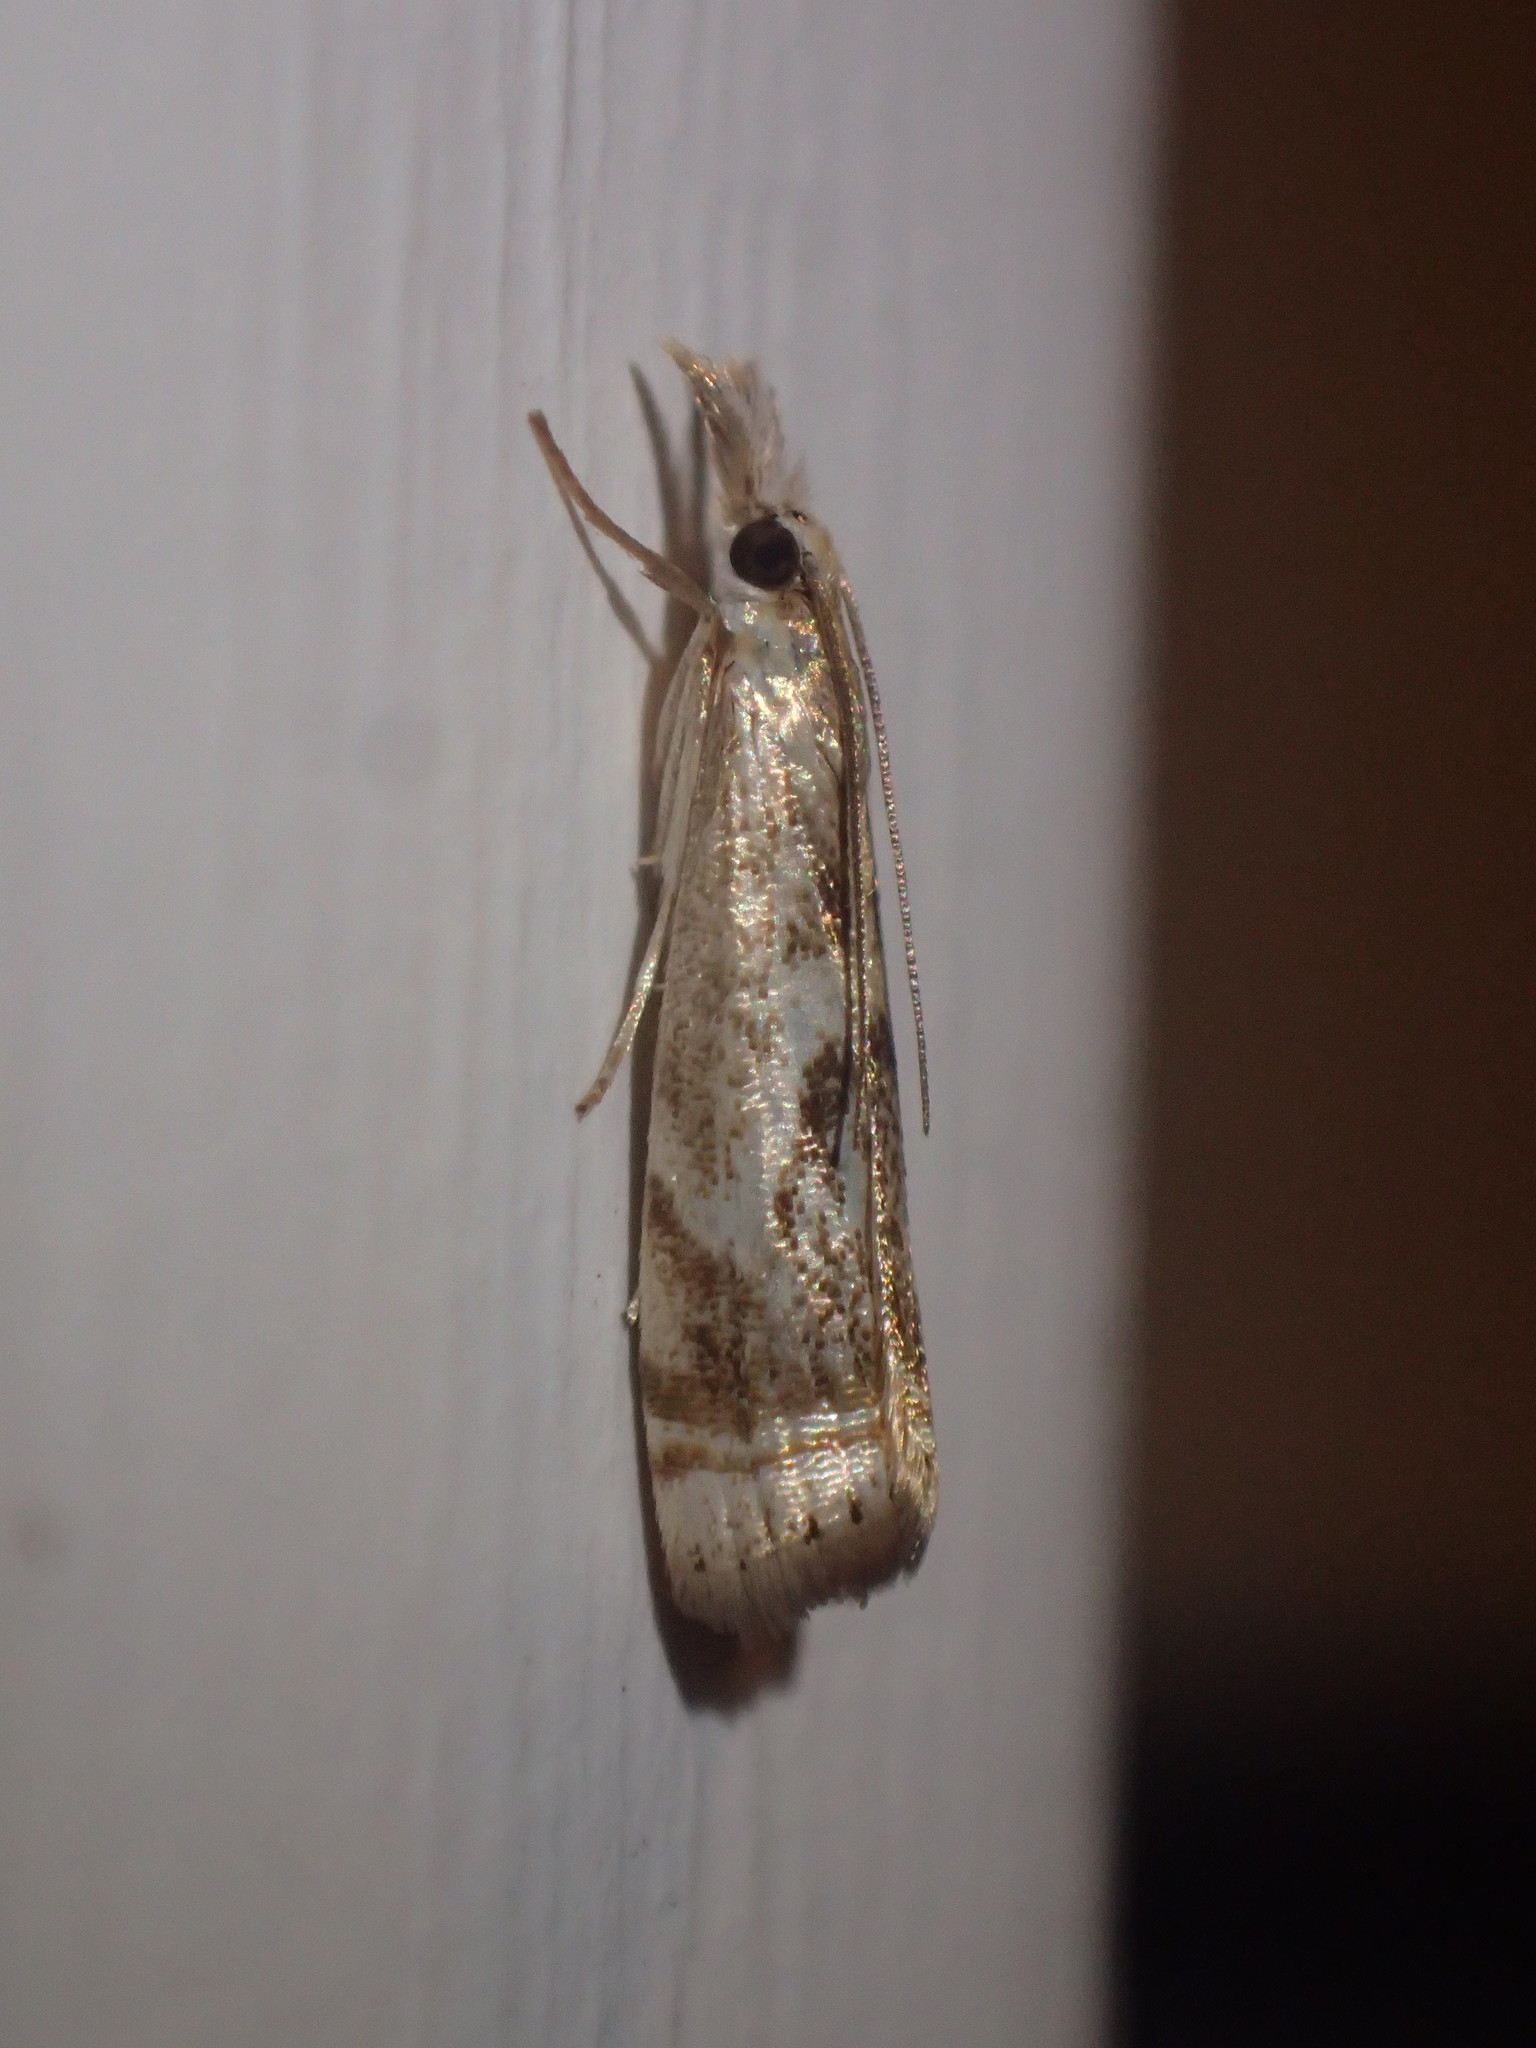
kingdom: Animalia
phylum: Arthropoda
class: Insecta
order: Lepidoptera
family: Crambidae
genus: Microcrambus
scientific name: Microcrambus elegans
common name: Elegant grass-veneer
